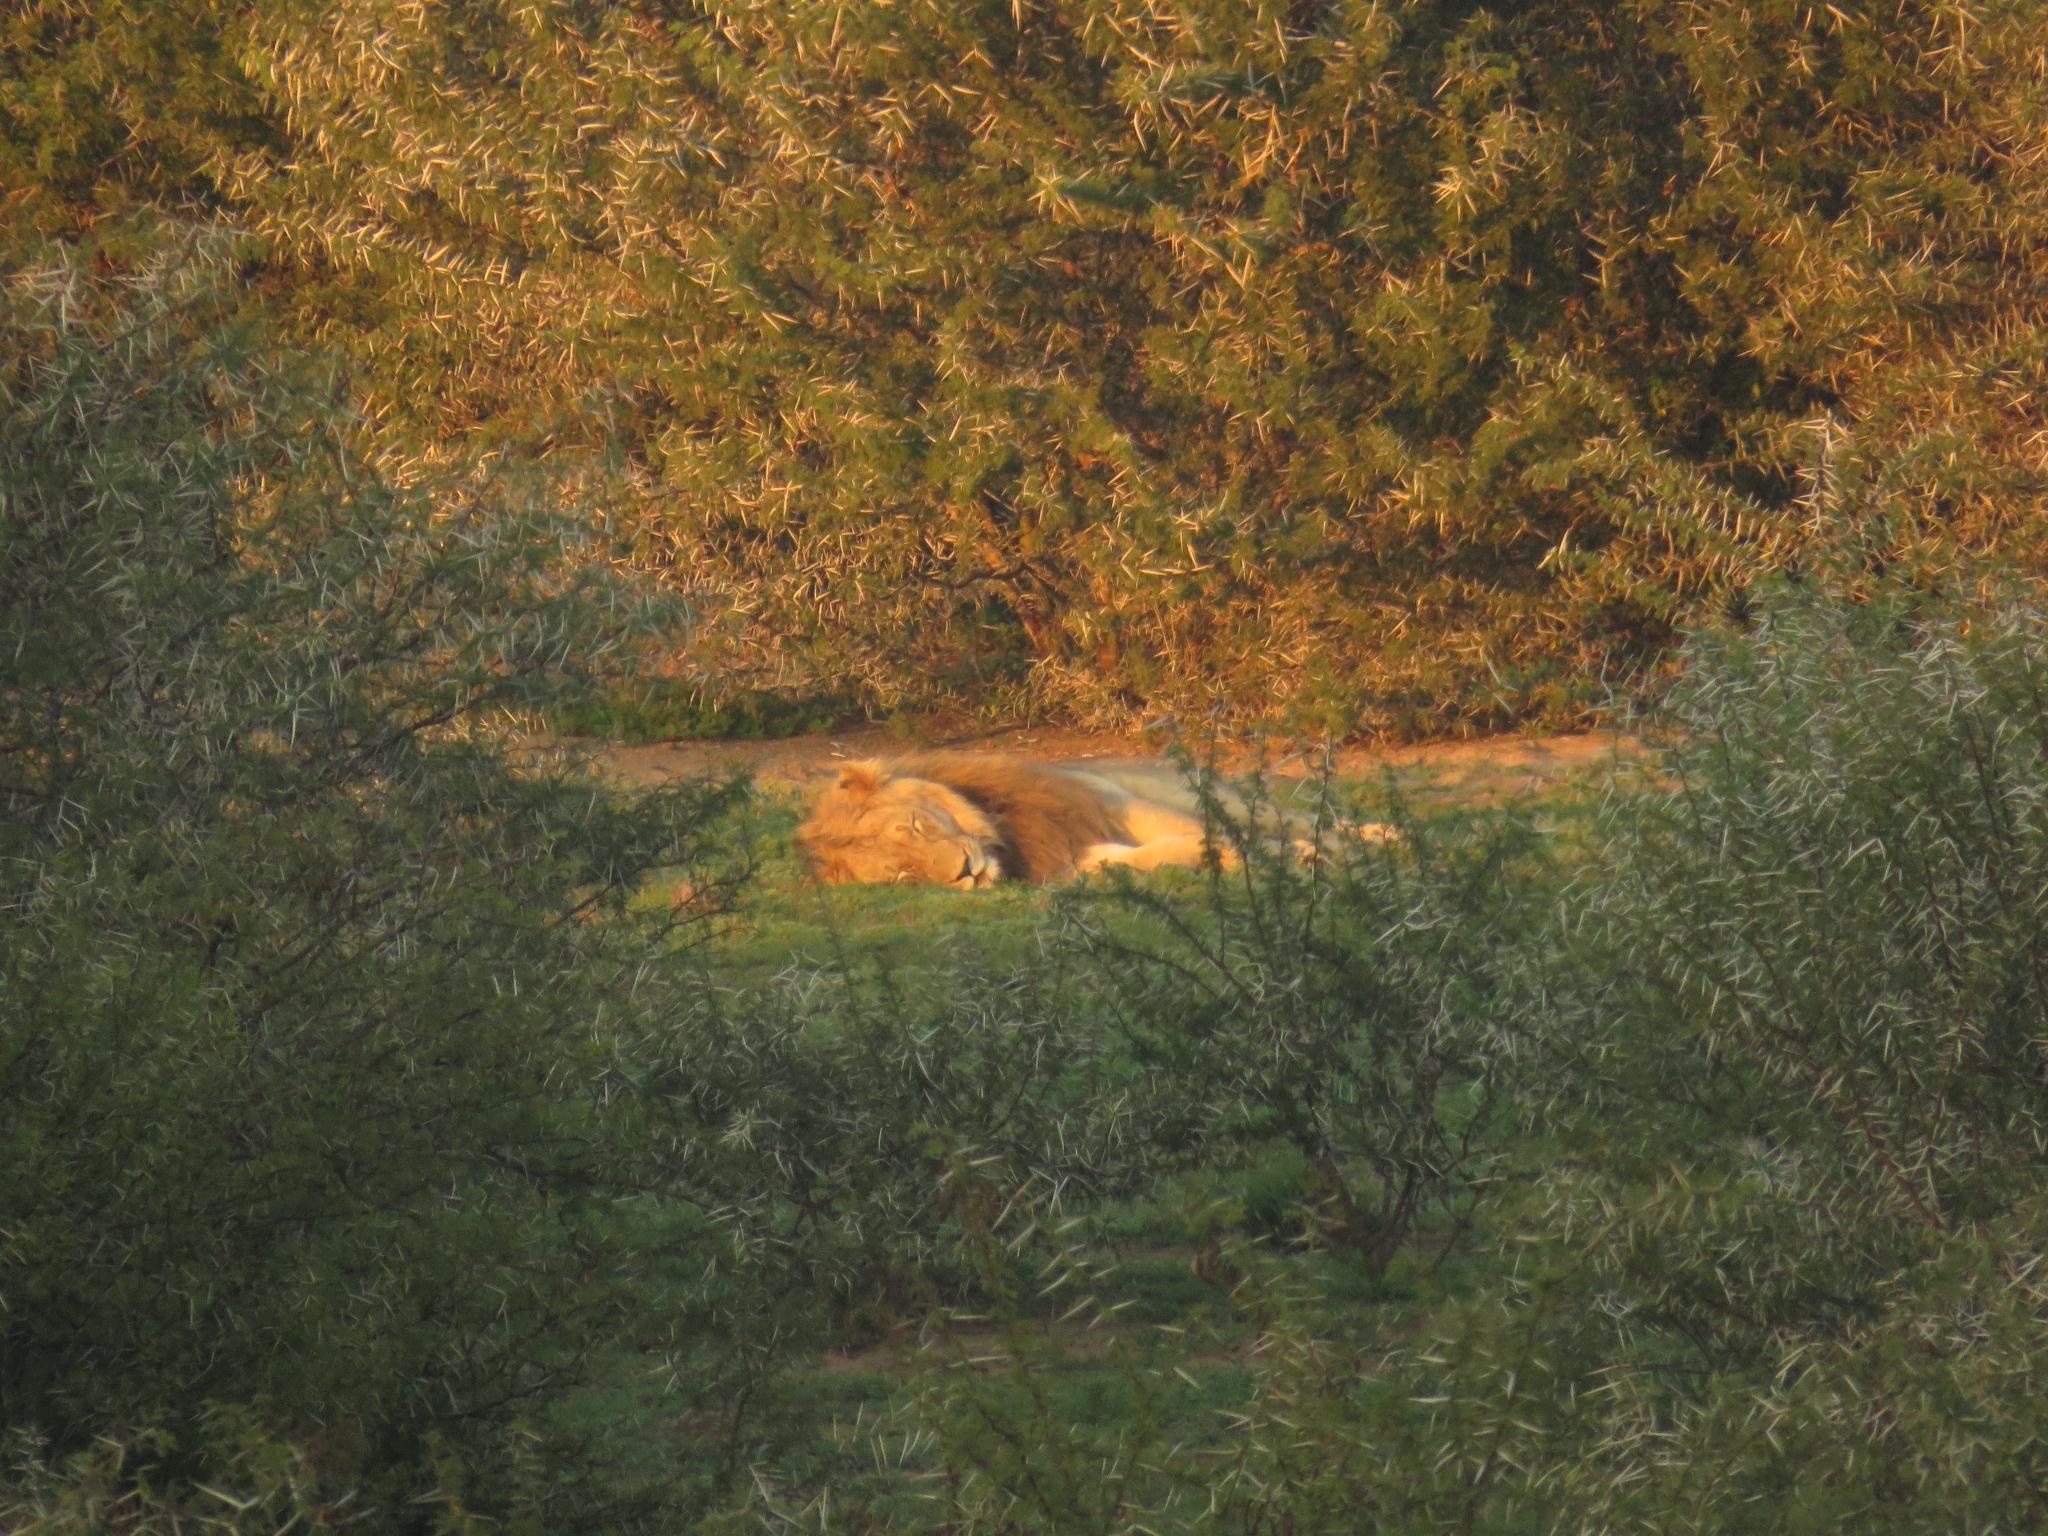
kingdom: Animalia
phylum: Chordata
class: Mammalia
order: Carnivora
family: Felidae
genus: Panthera
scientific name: Panthera leo
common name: Lion
